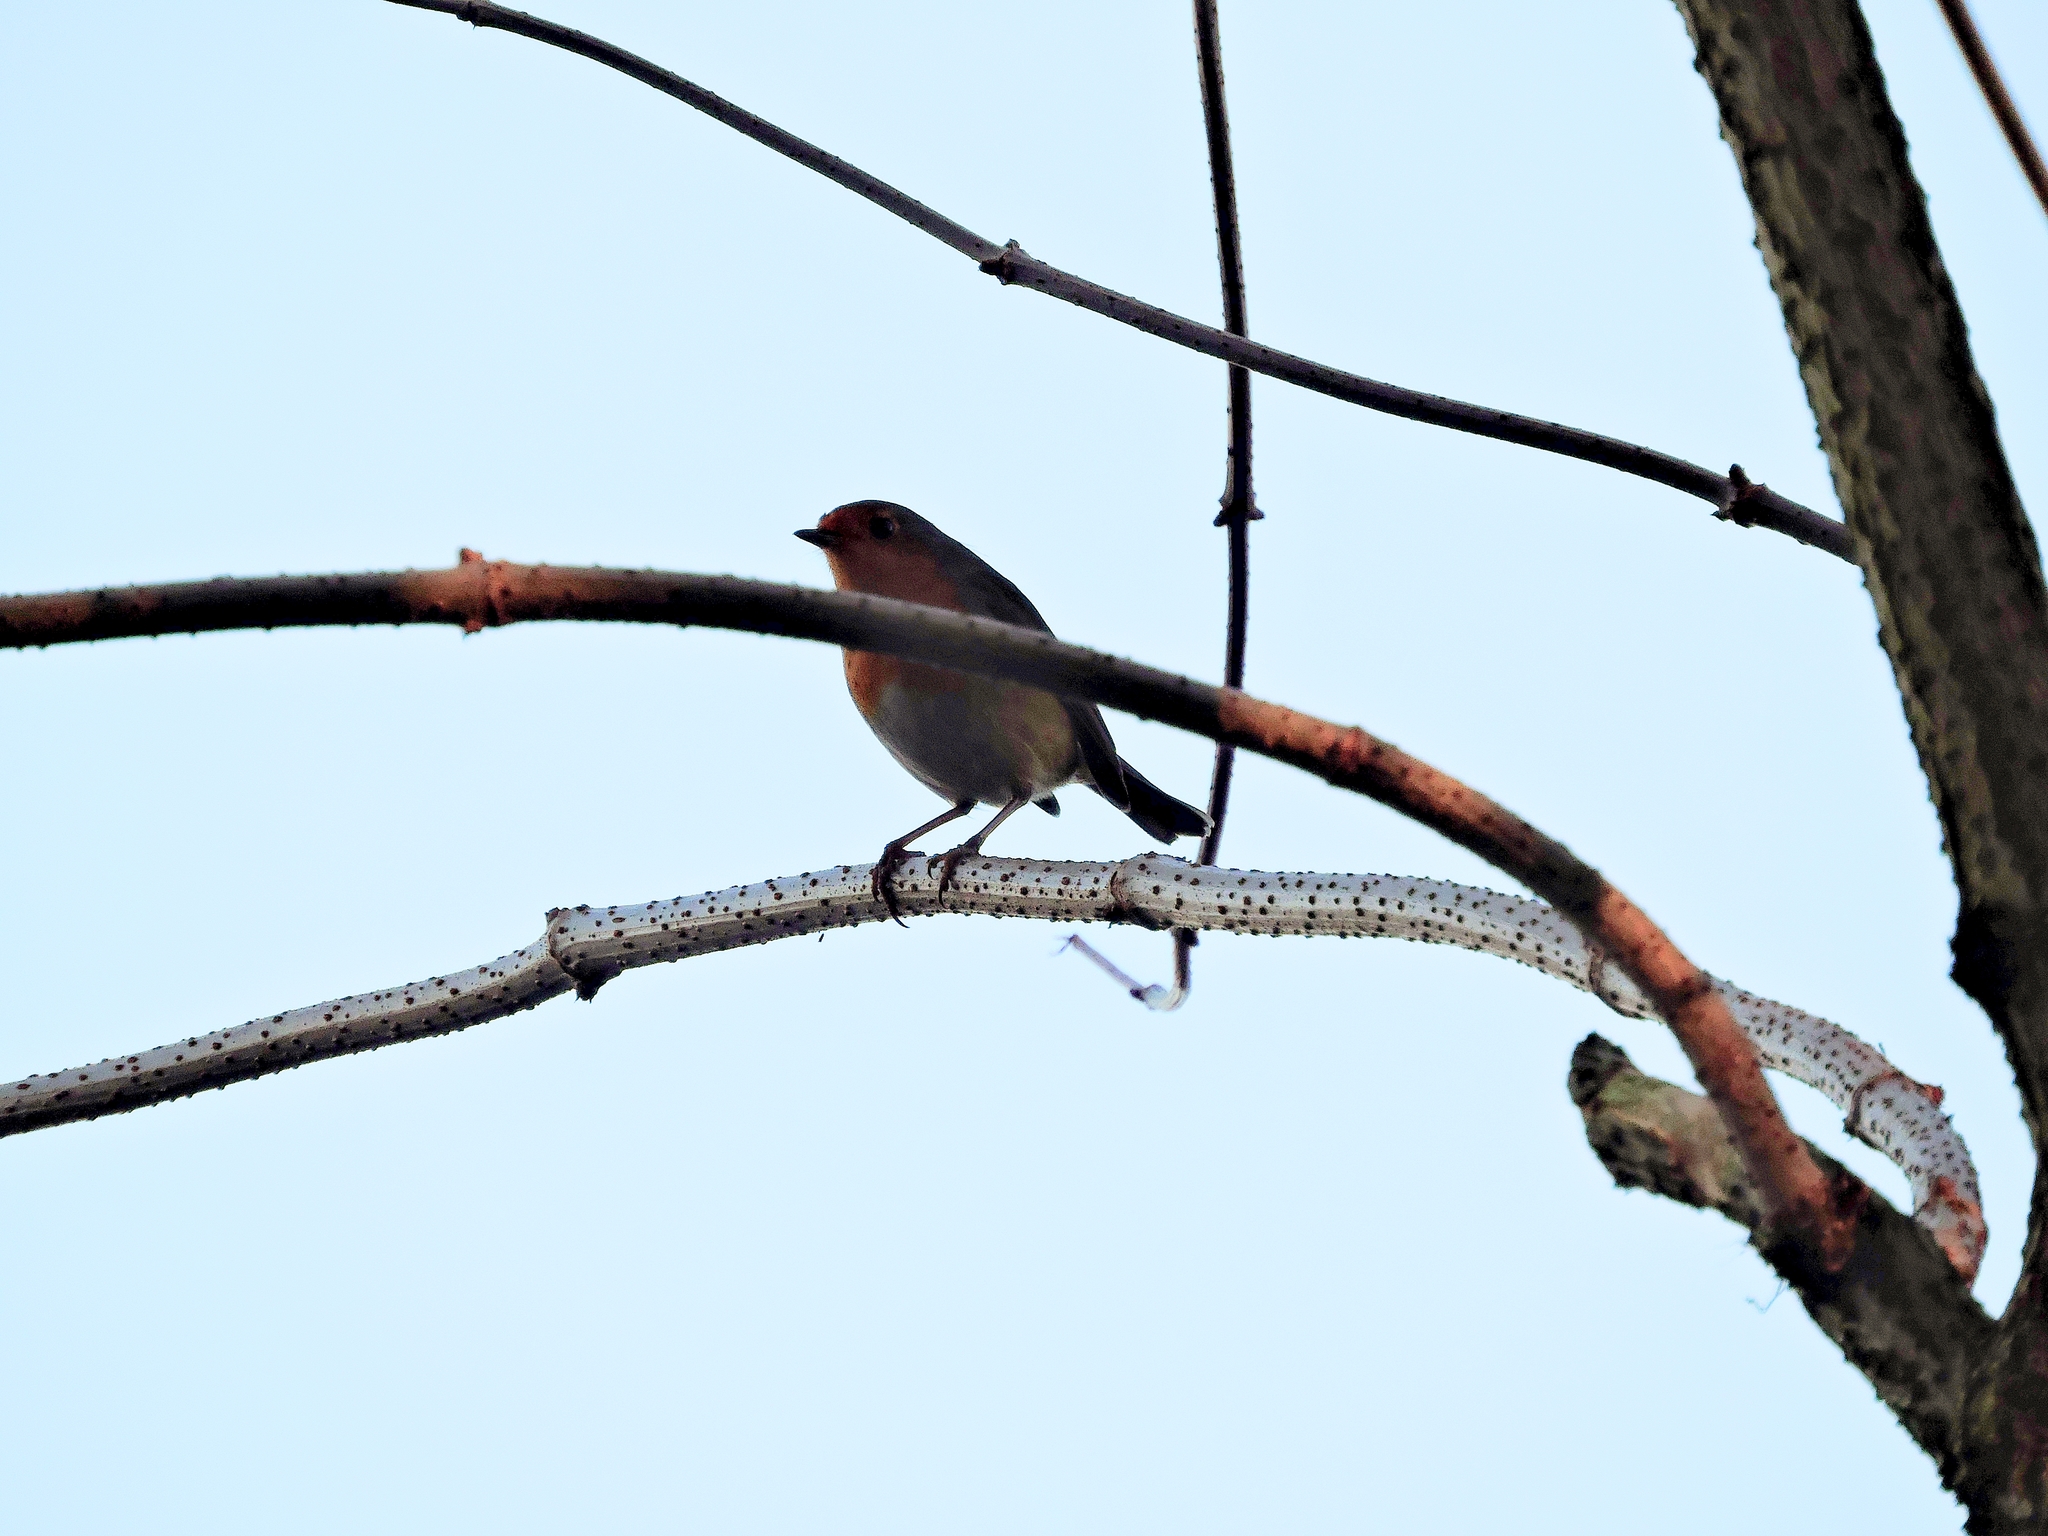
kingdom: Animalia
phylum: Chordata
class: Aves
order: Passeriformes
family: Muscicapidae
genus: Erithacus
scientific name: Erithacus rubecula
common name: European robin
